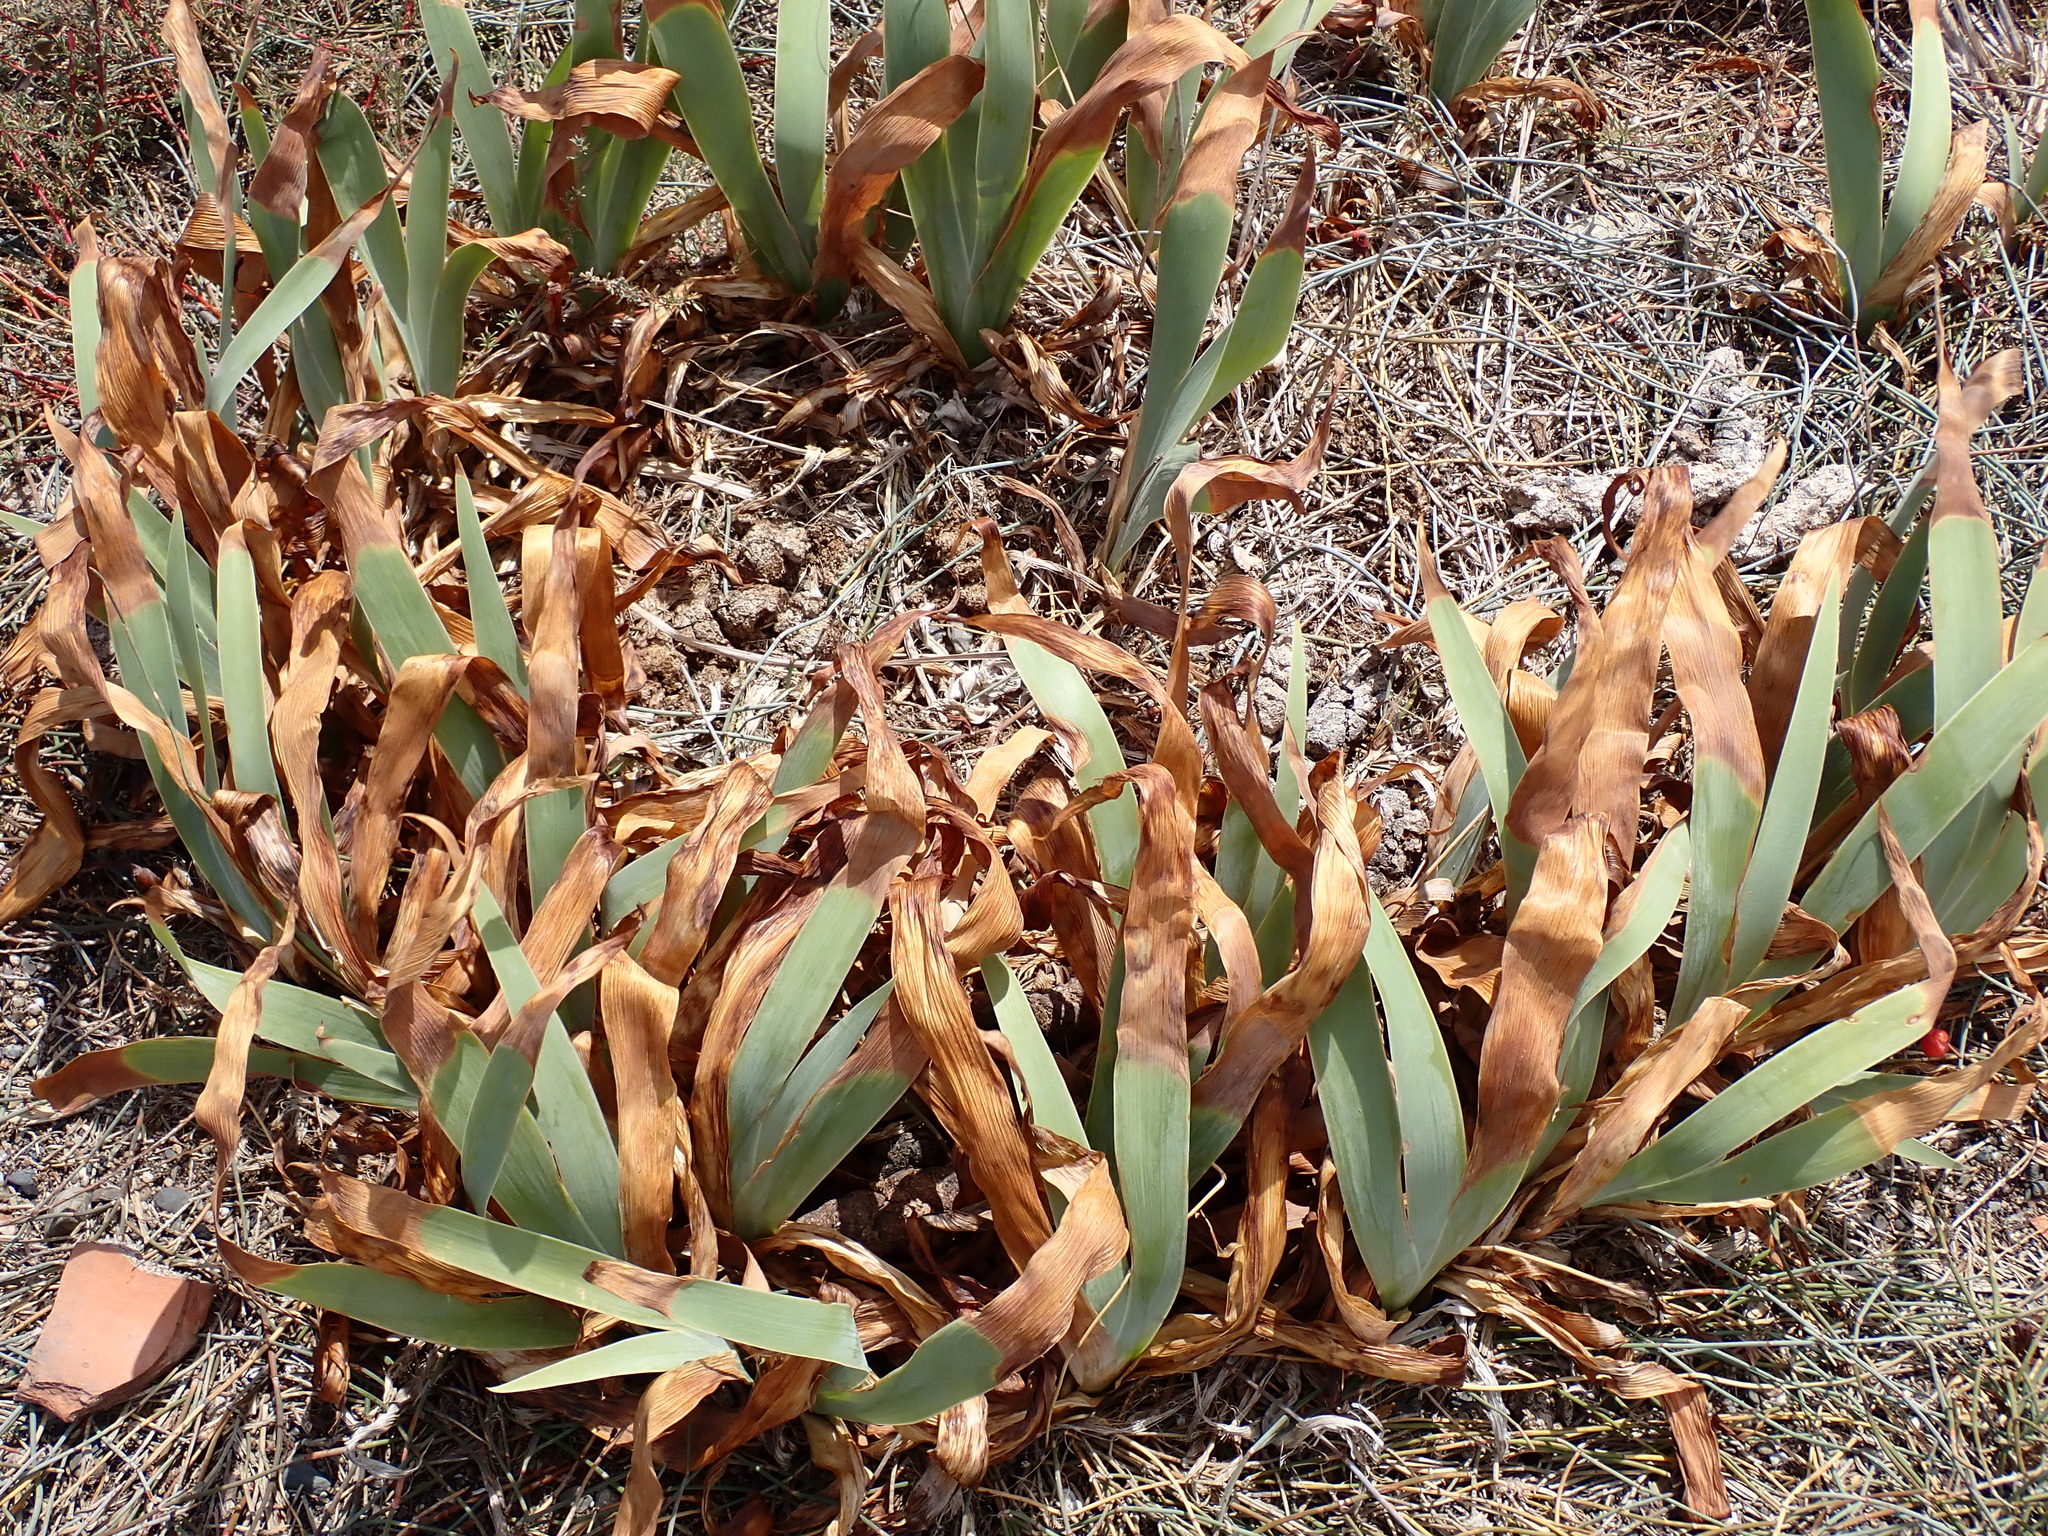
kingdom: Plantae
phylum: Tracheophyta
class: Liliopsida
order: Asparagales
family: Amaryllidaceae
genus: Pancratium
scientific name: Pancratium maritimum
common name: Sea-daffodil
